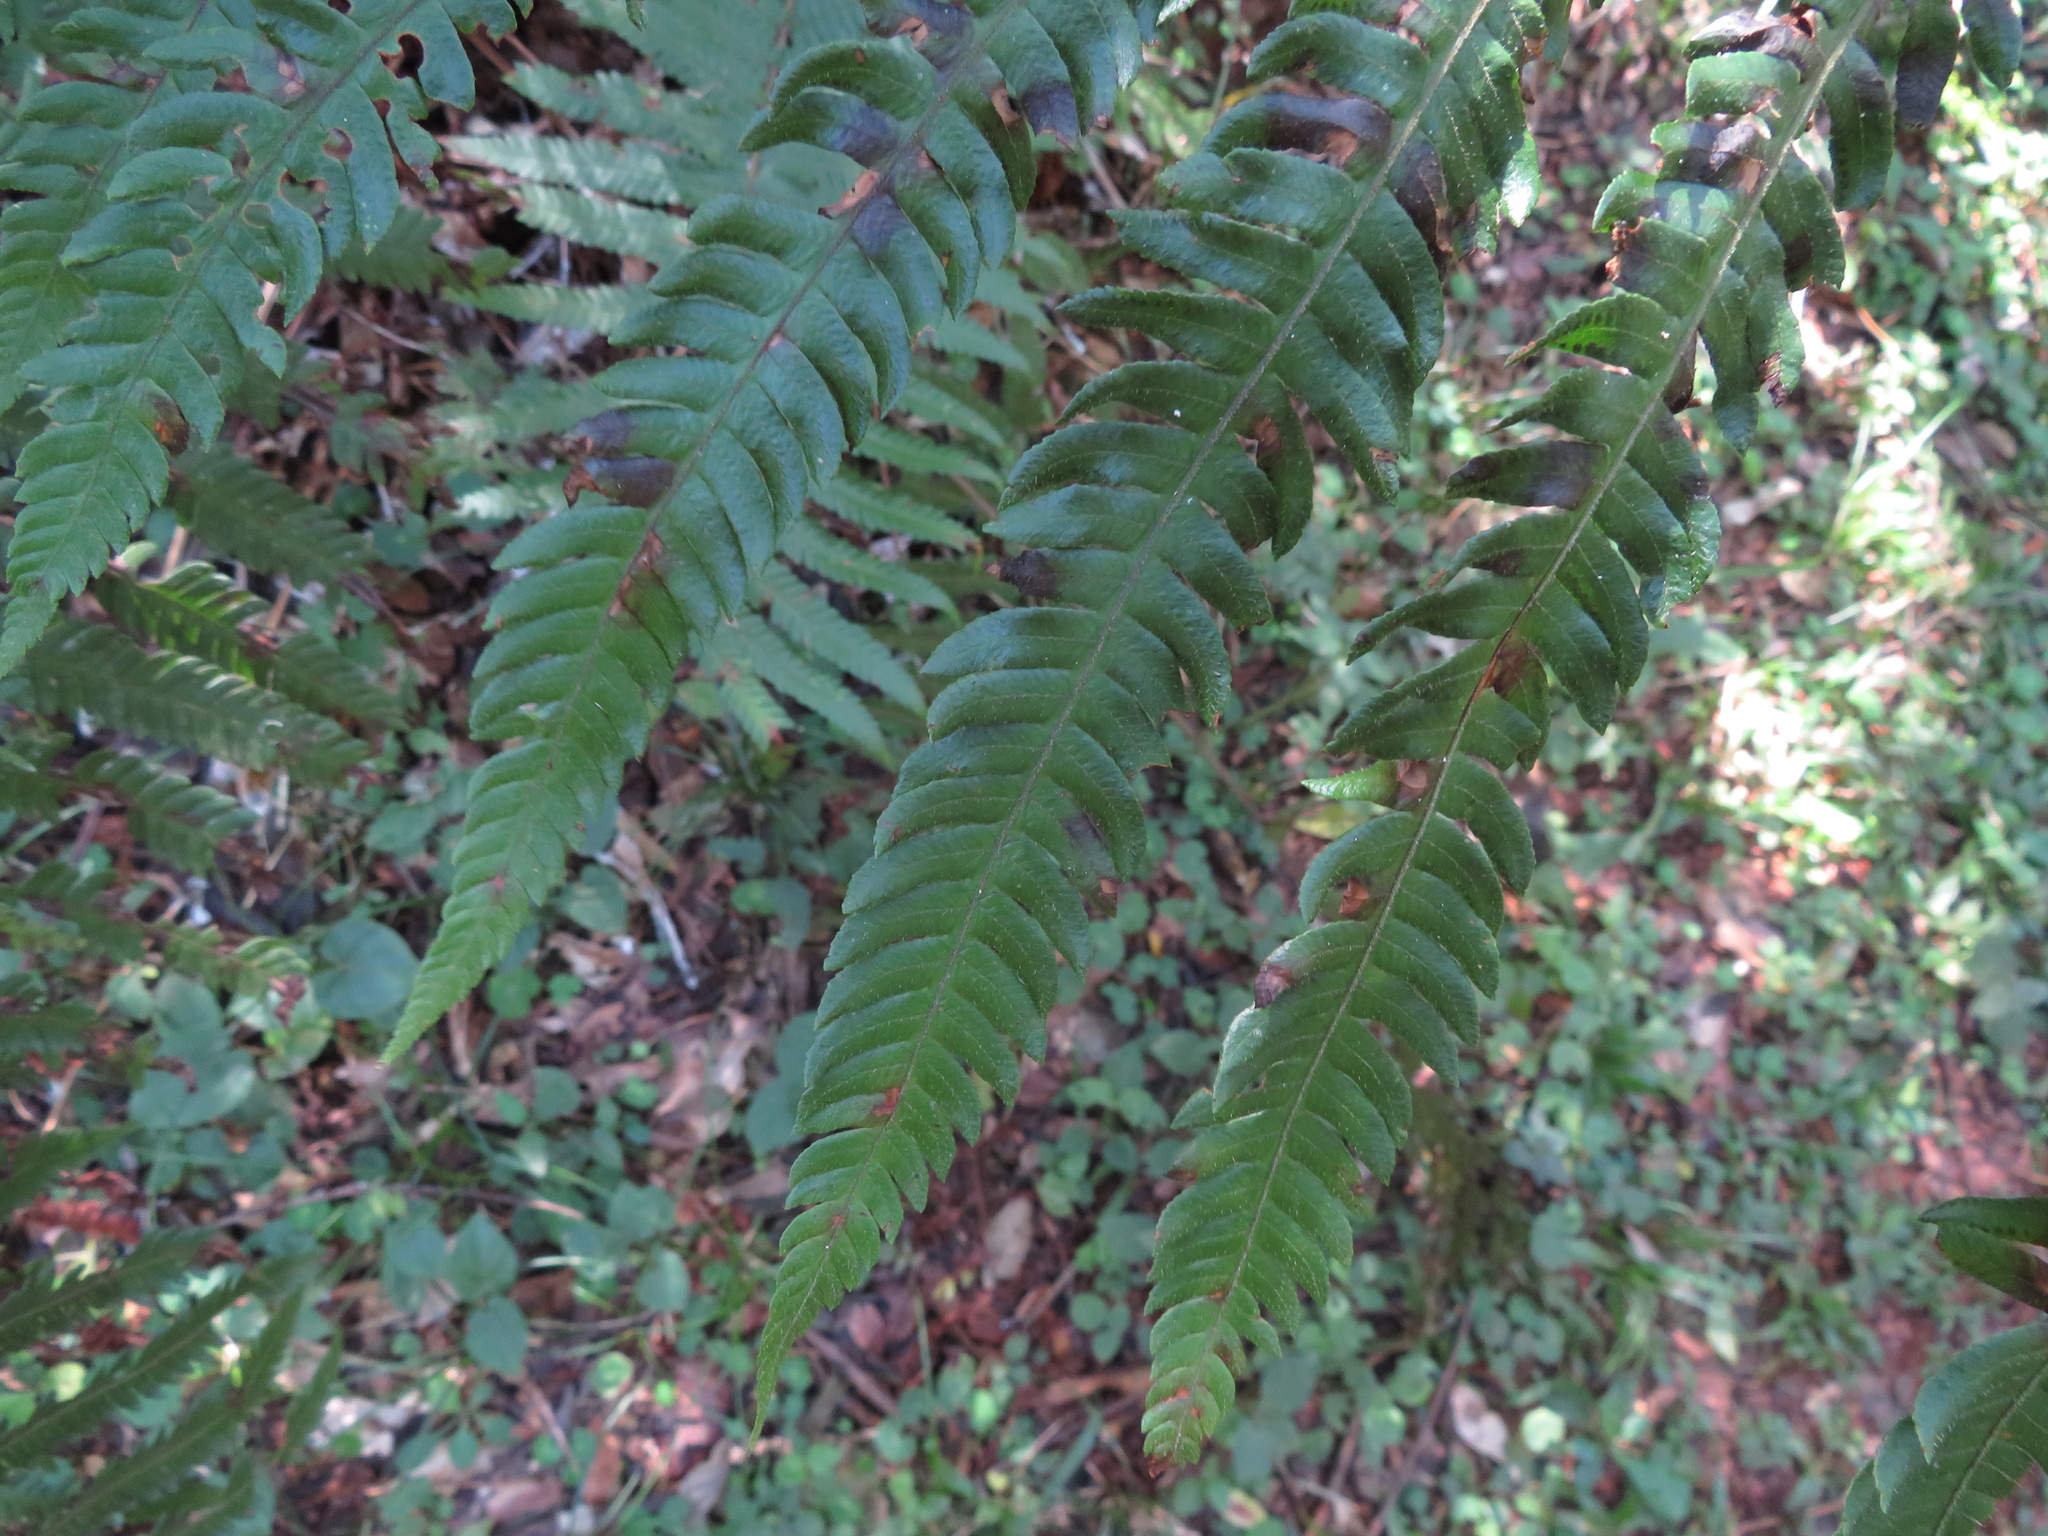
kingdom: Plantae
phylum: Tracheophyta
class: Polypodiopsida
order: Polypodiales
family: Dryopteridaceae
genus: Ctenitis
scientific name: Ctenitis submarginalis
